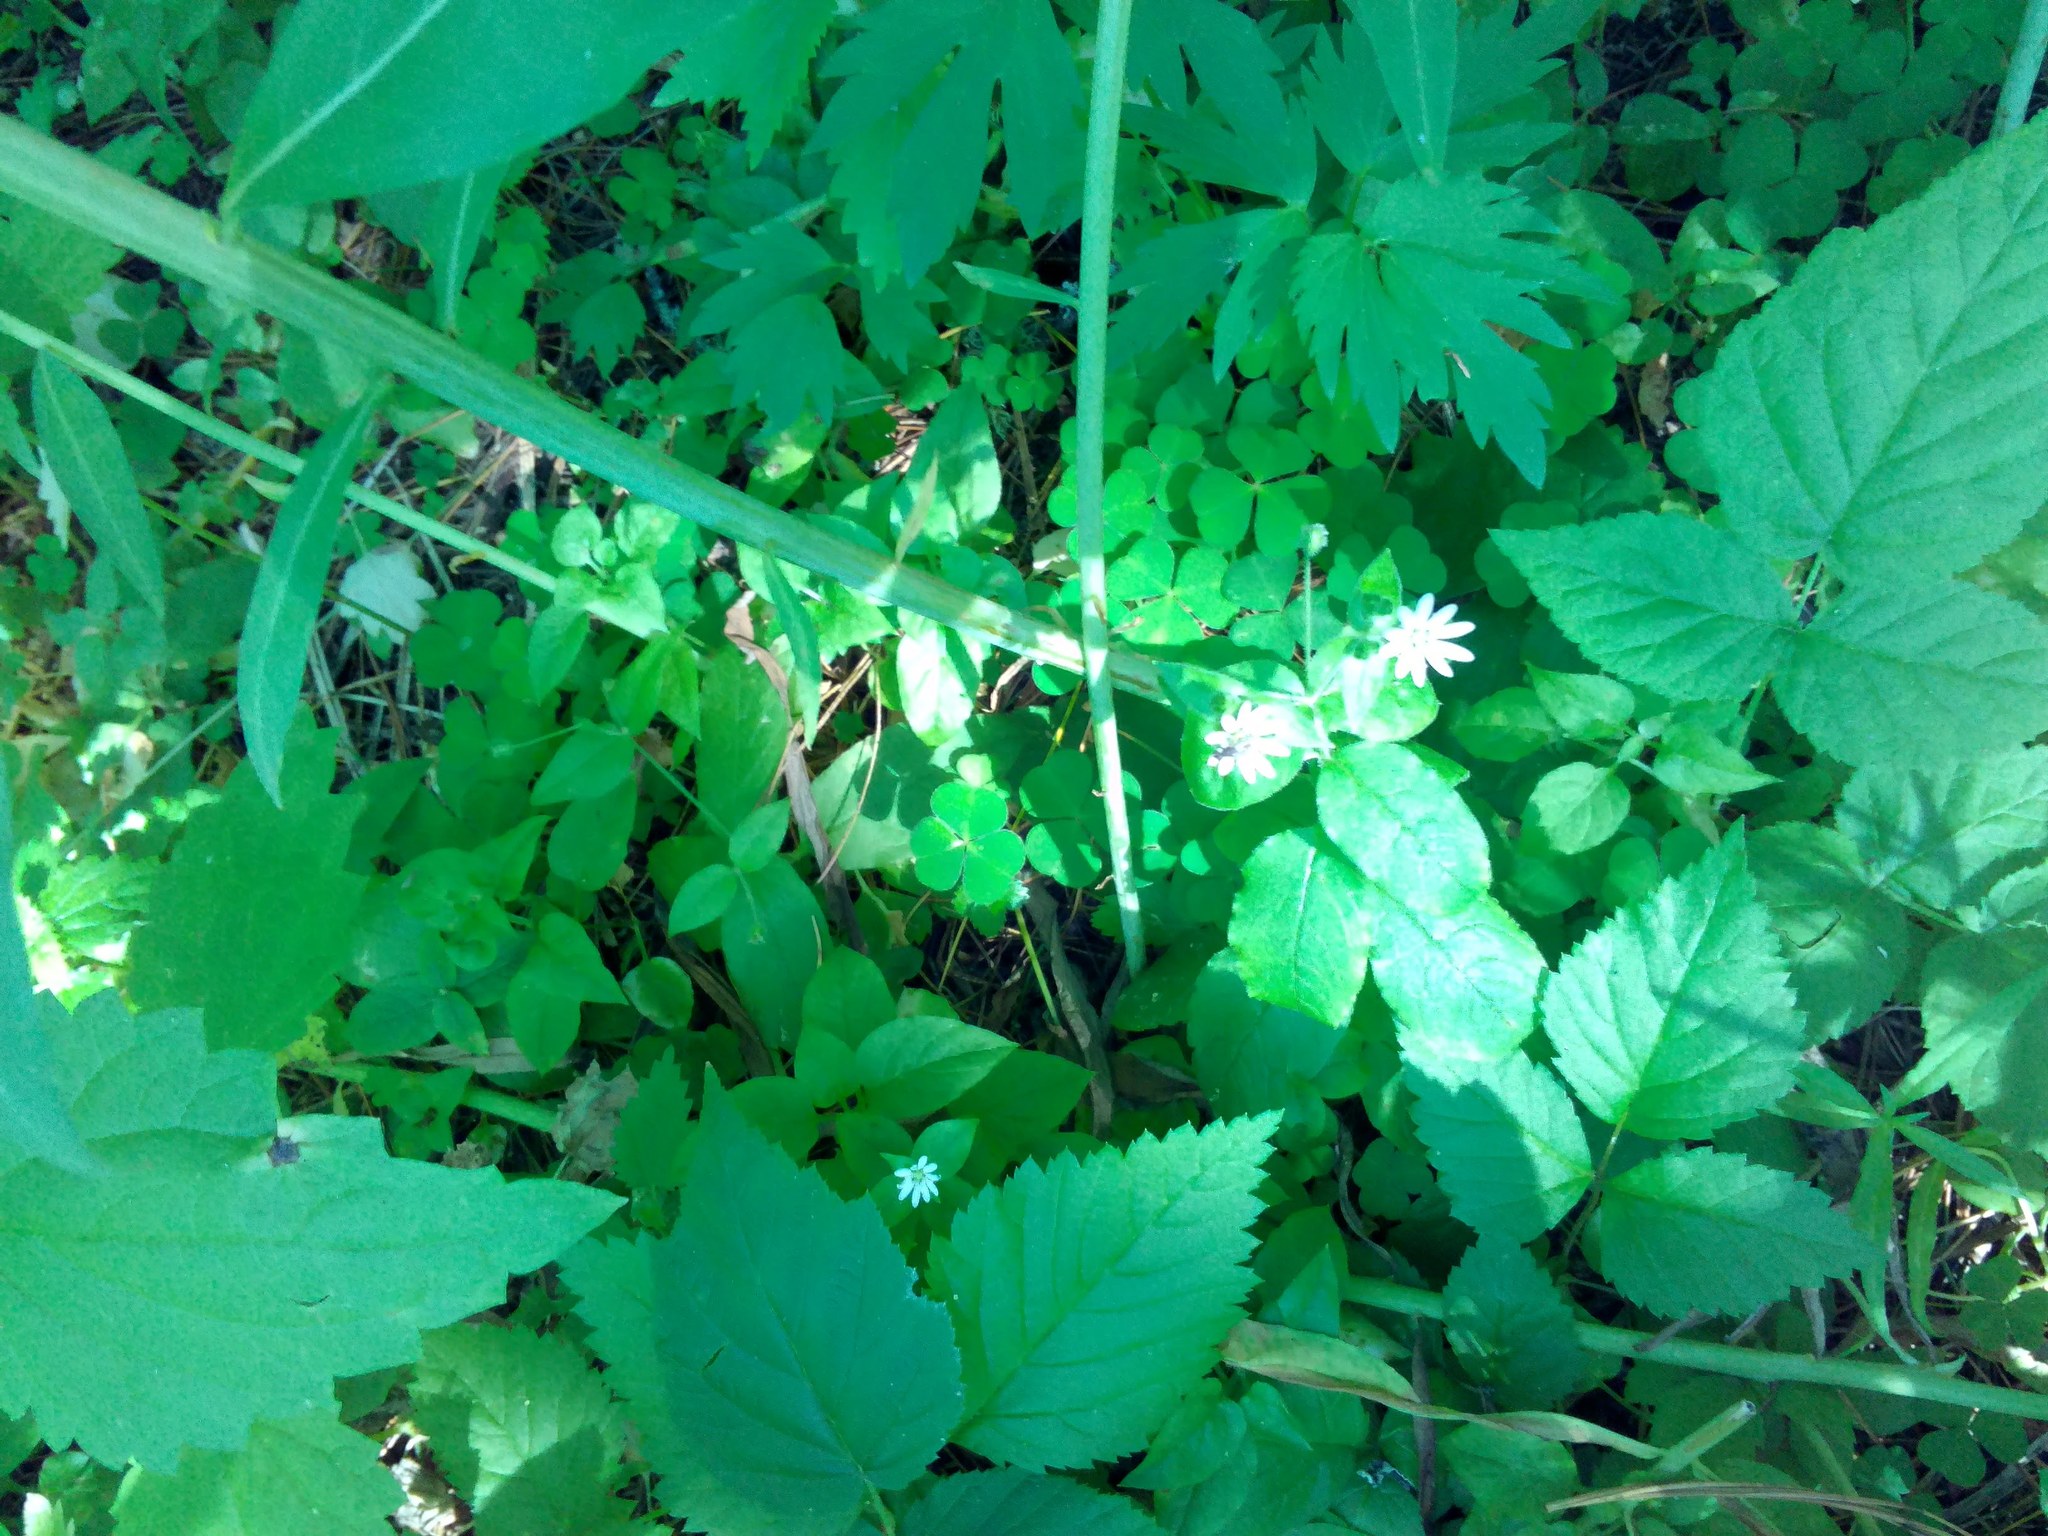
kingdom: Plantae
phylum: Tracheophyta
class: Magnoliopsida
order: Caryophyllales
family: Caryophyllaceae
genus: Stellaria
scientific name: Stellaria bungeana
